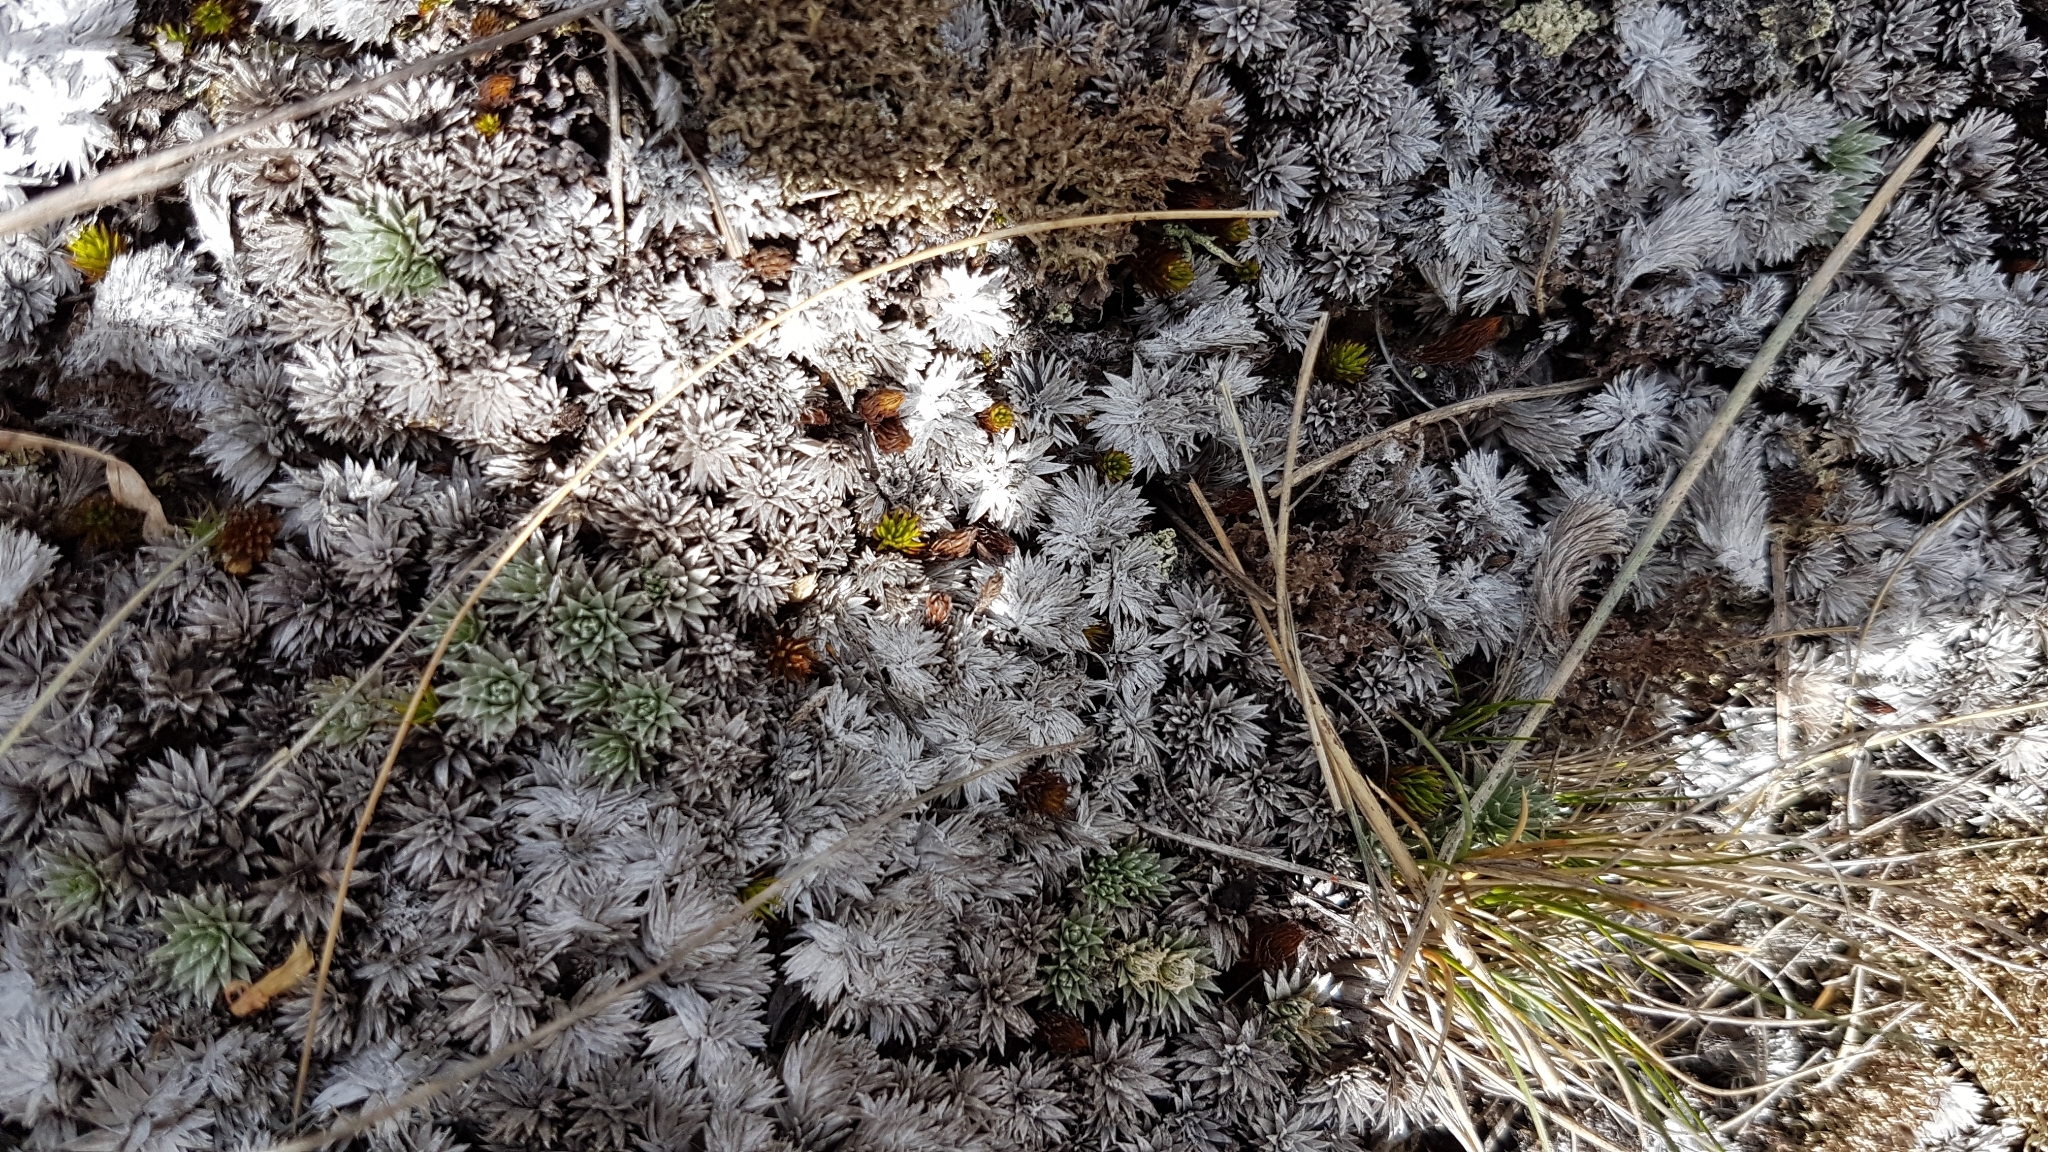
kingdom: Plantae
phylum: Tracheophyta
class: Magnoliopsida
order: Asterales
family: Asteraceae
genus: Raoulia
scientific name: Raoulia grandiflora
